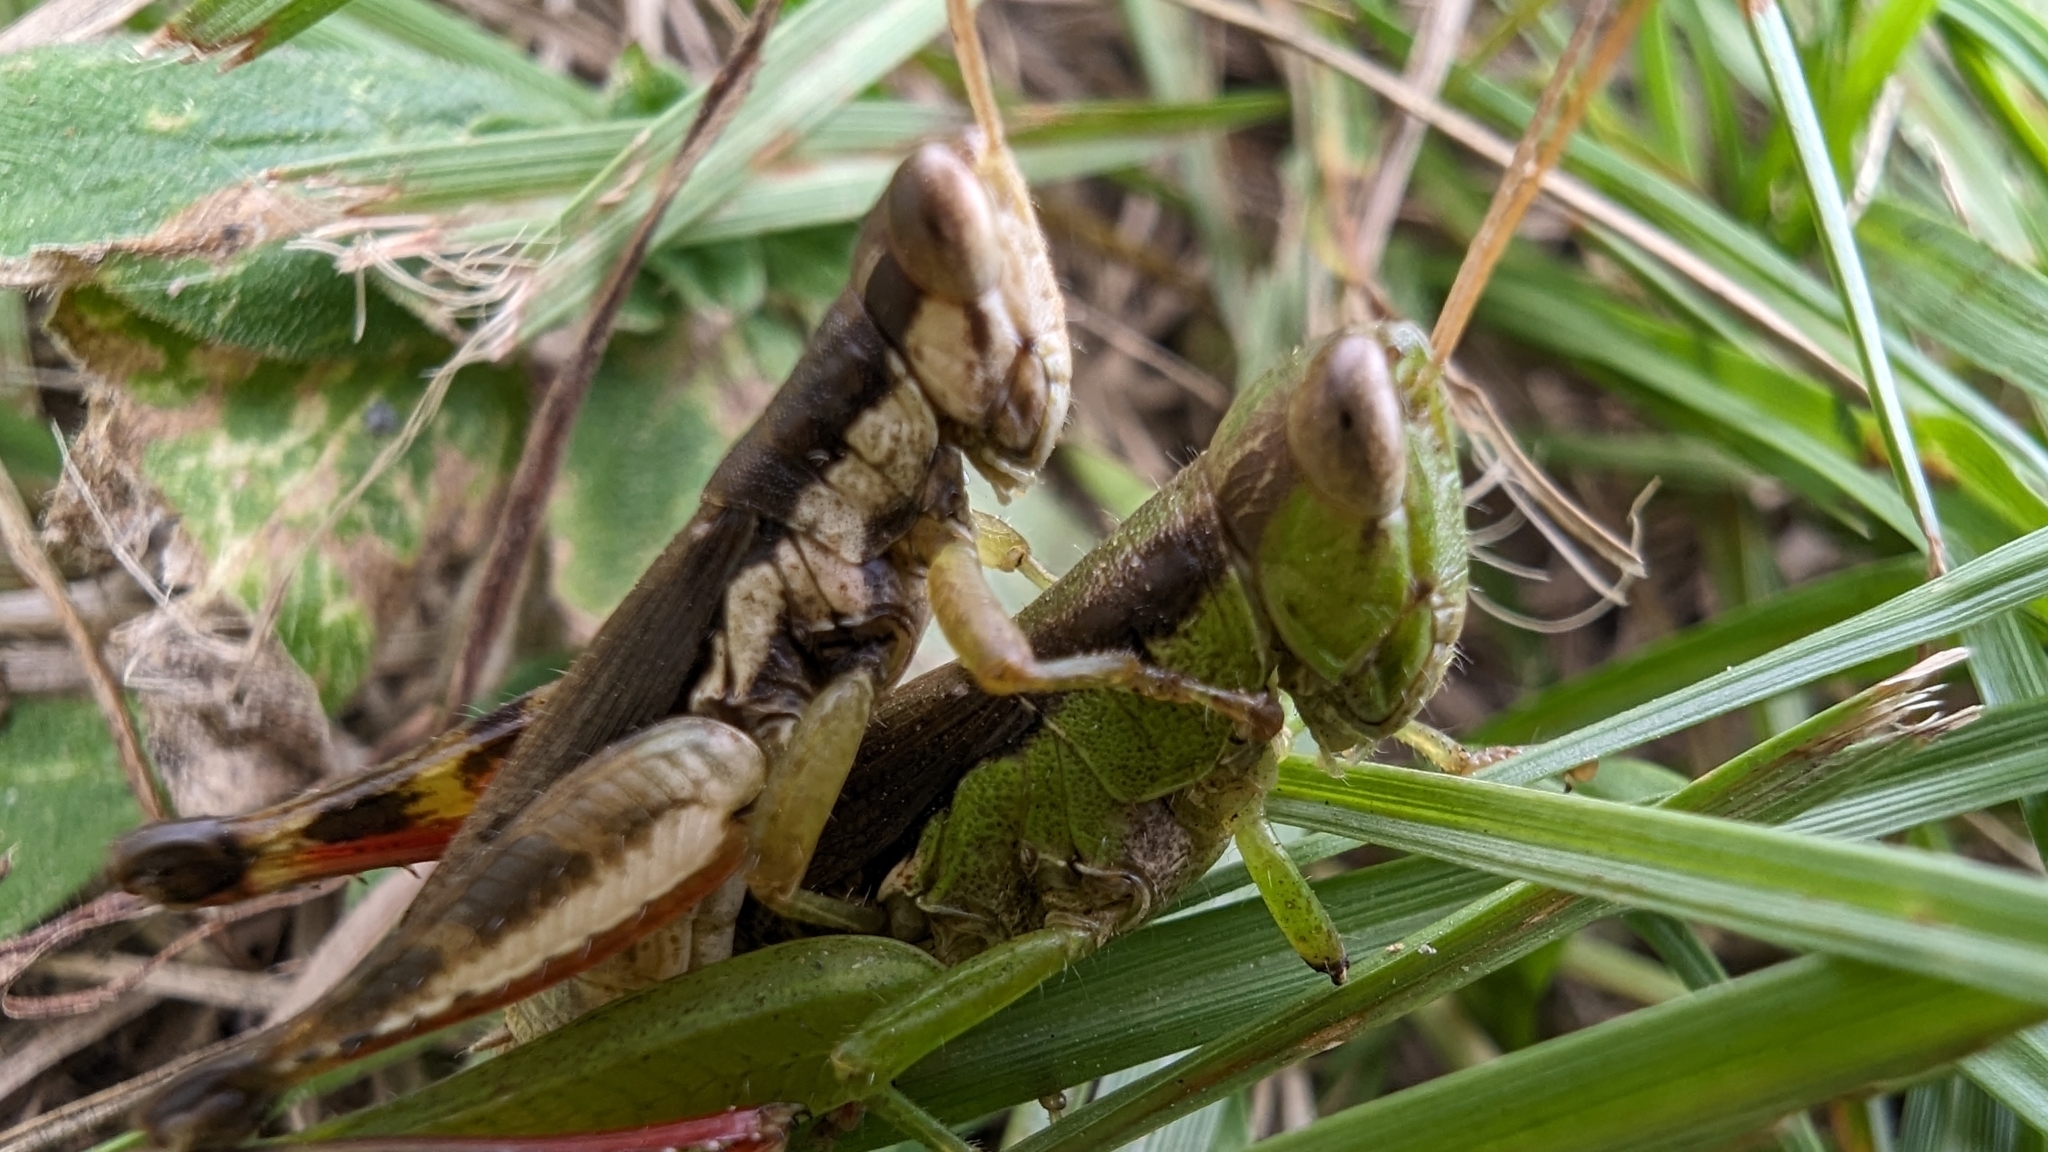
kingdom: Animalia
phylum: Arthropoda
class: Insecta
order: Orthoptera
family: Acrididae
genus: Pseudoxya
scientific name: Pseudoxya diminuta
